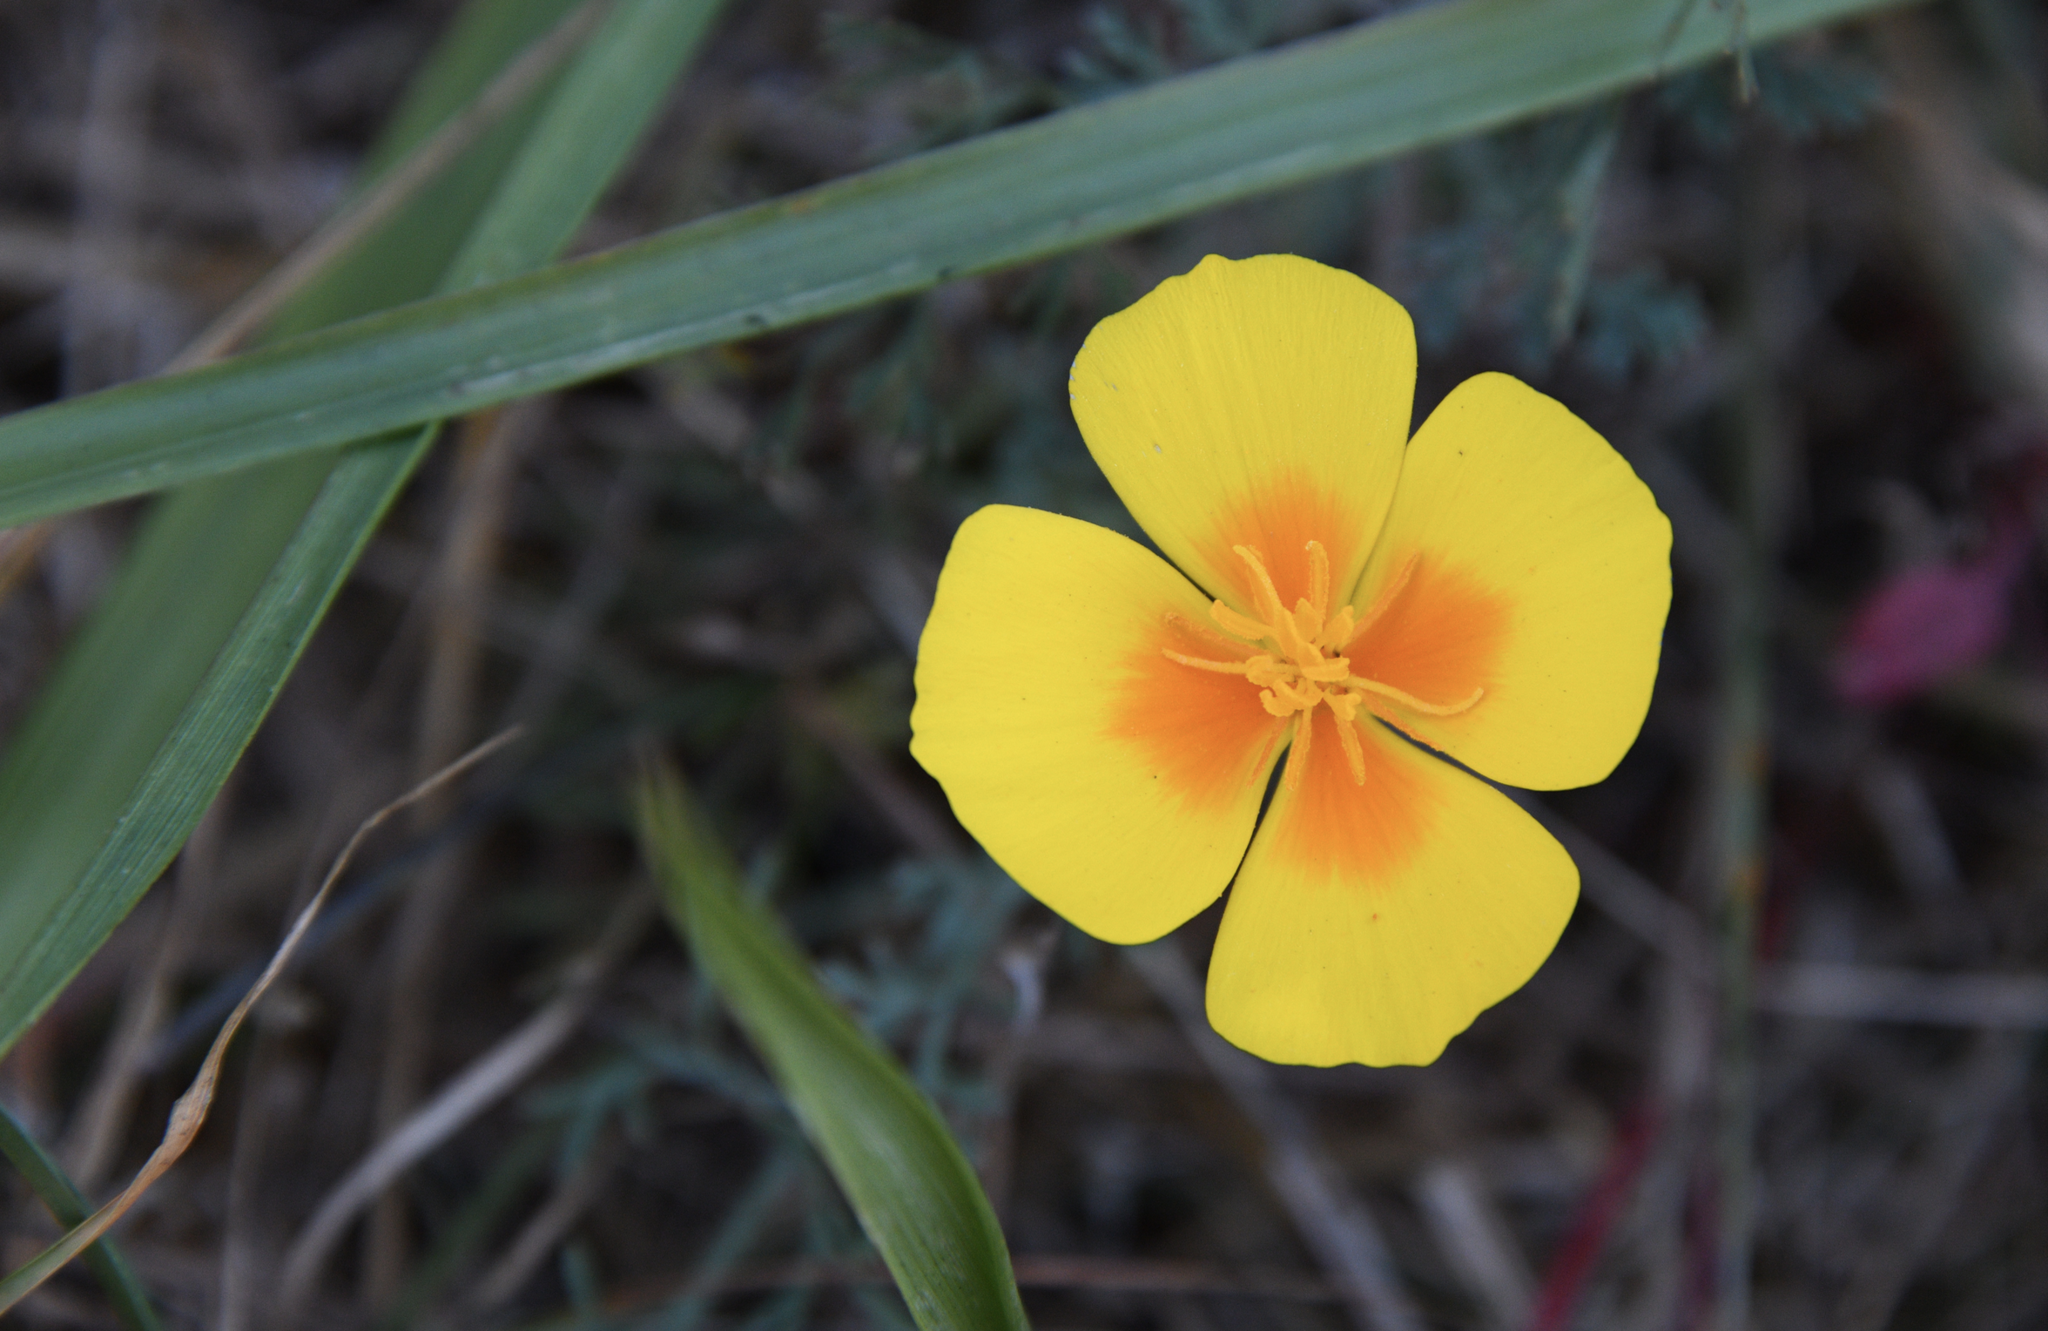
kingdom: Plantae
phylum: Tracheophyta
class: Magnoliopsida
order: Ranunculales
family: Papaveraceae
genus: Eschscholzia
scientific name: Eschscholzia californica
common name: California poppy
